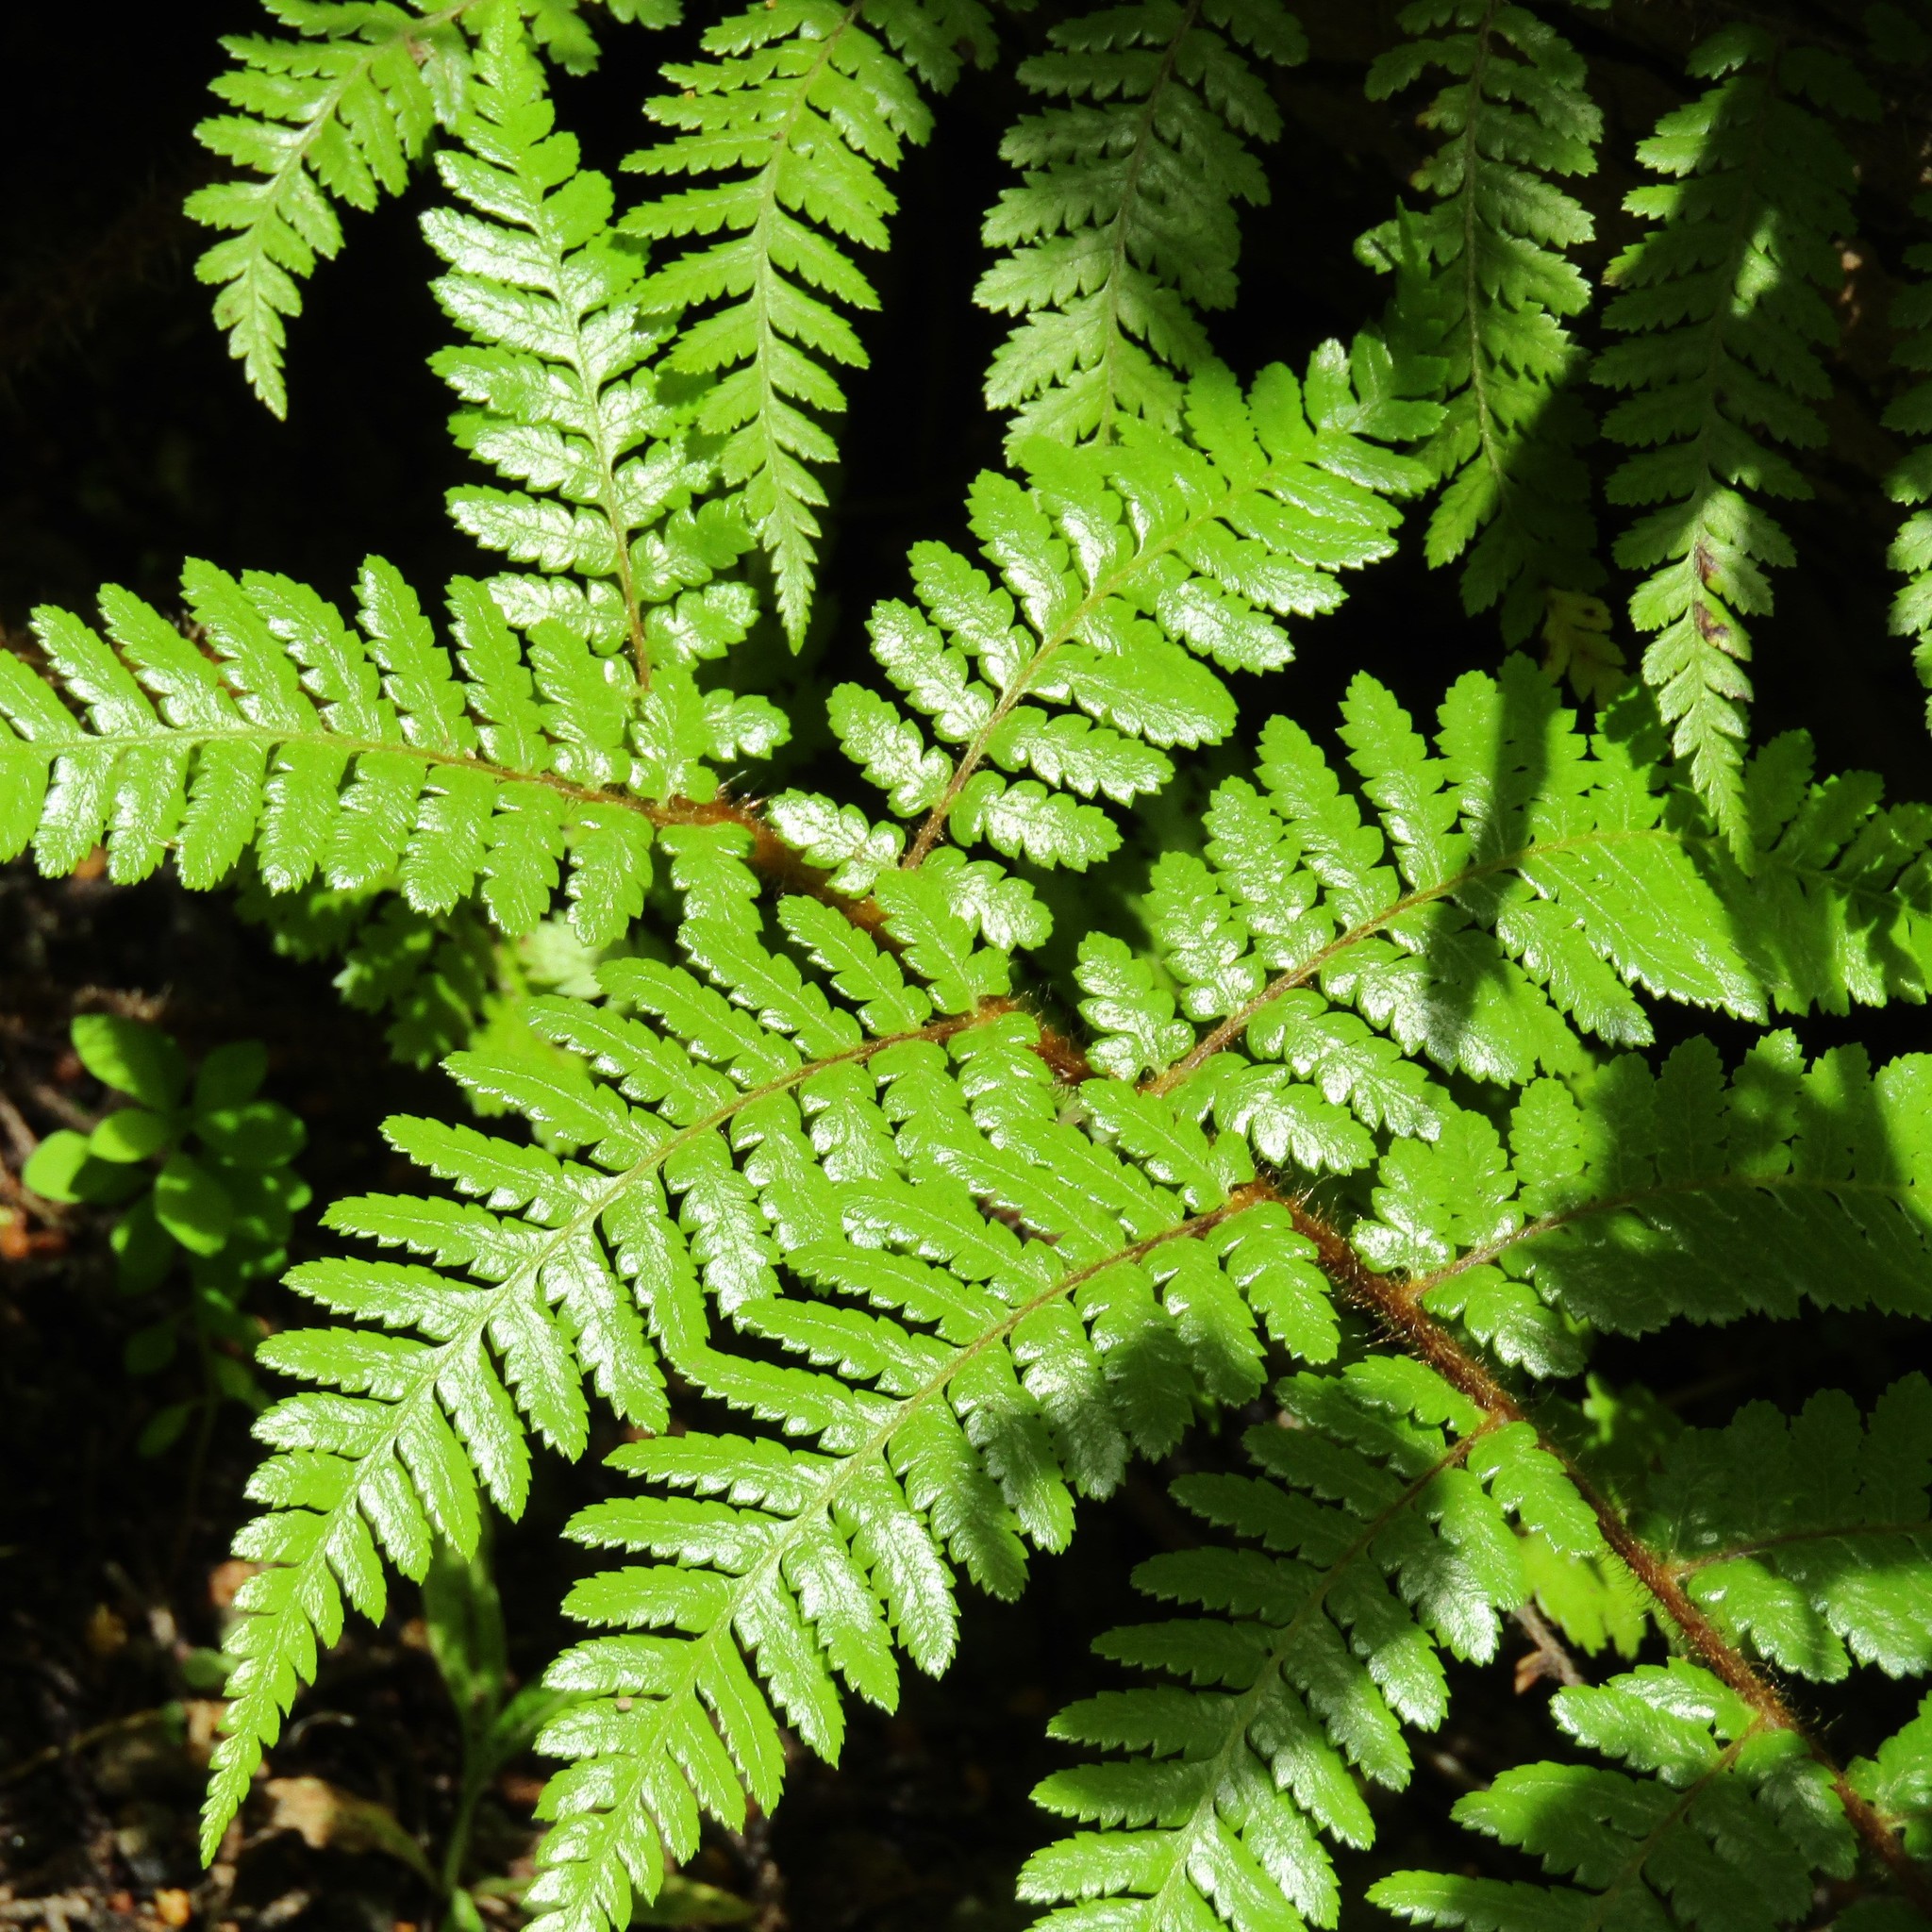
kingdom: Plantae
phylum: Tracheophyta
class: Polypodiopsida
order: Cyatheales
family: Cyatheaceae
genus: Sphaeropteris
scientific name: Sphaeropteris medullaris
